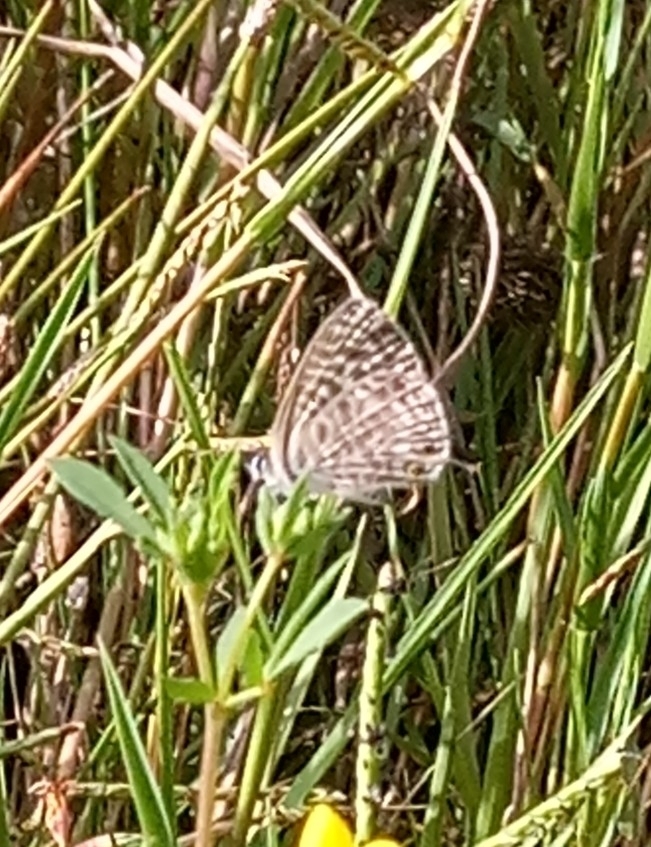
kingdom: Animalia
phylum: Arthropoda
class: Insecta
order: Lepidoptera
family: Lycaenidae
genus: Leptotes
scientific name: Leptotes pirithous
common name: Lang's short-tailed blue
